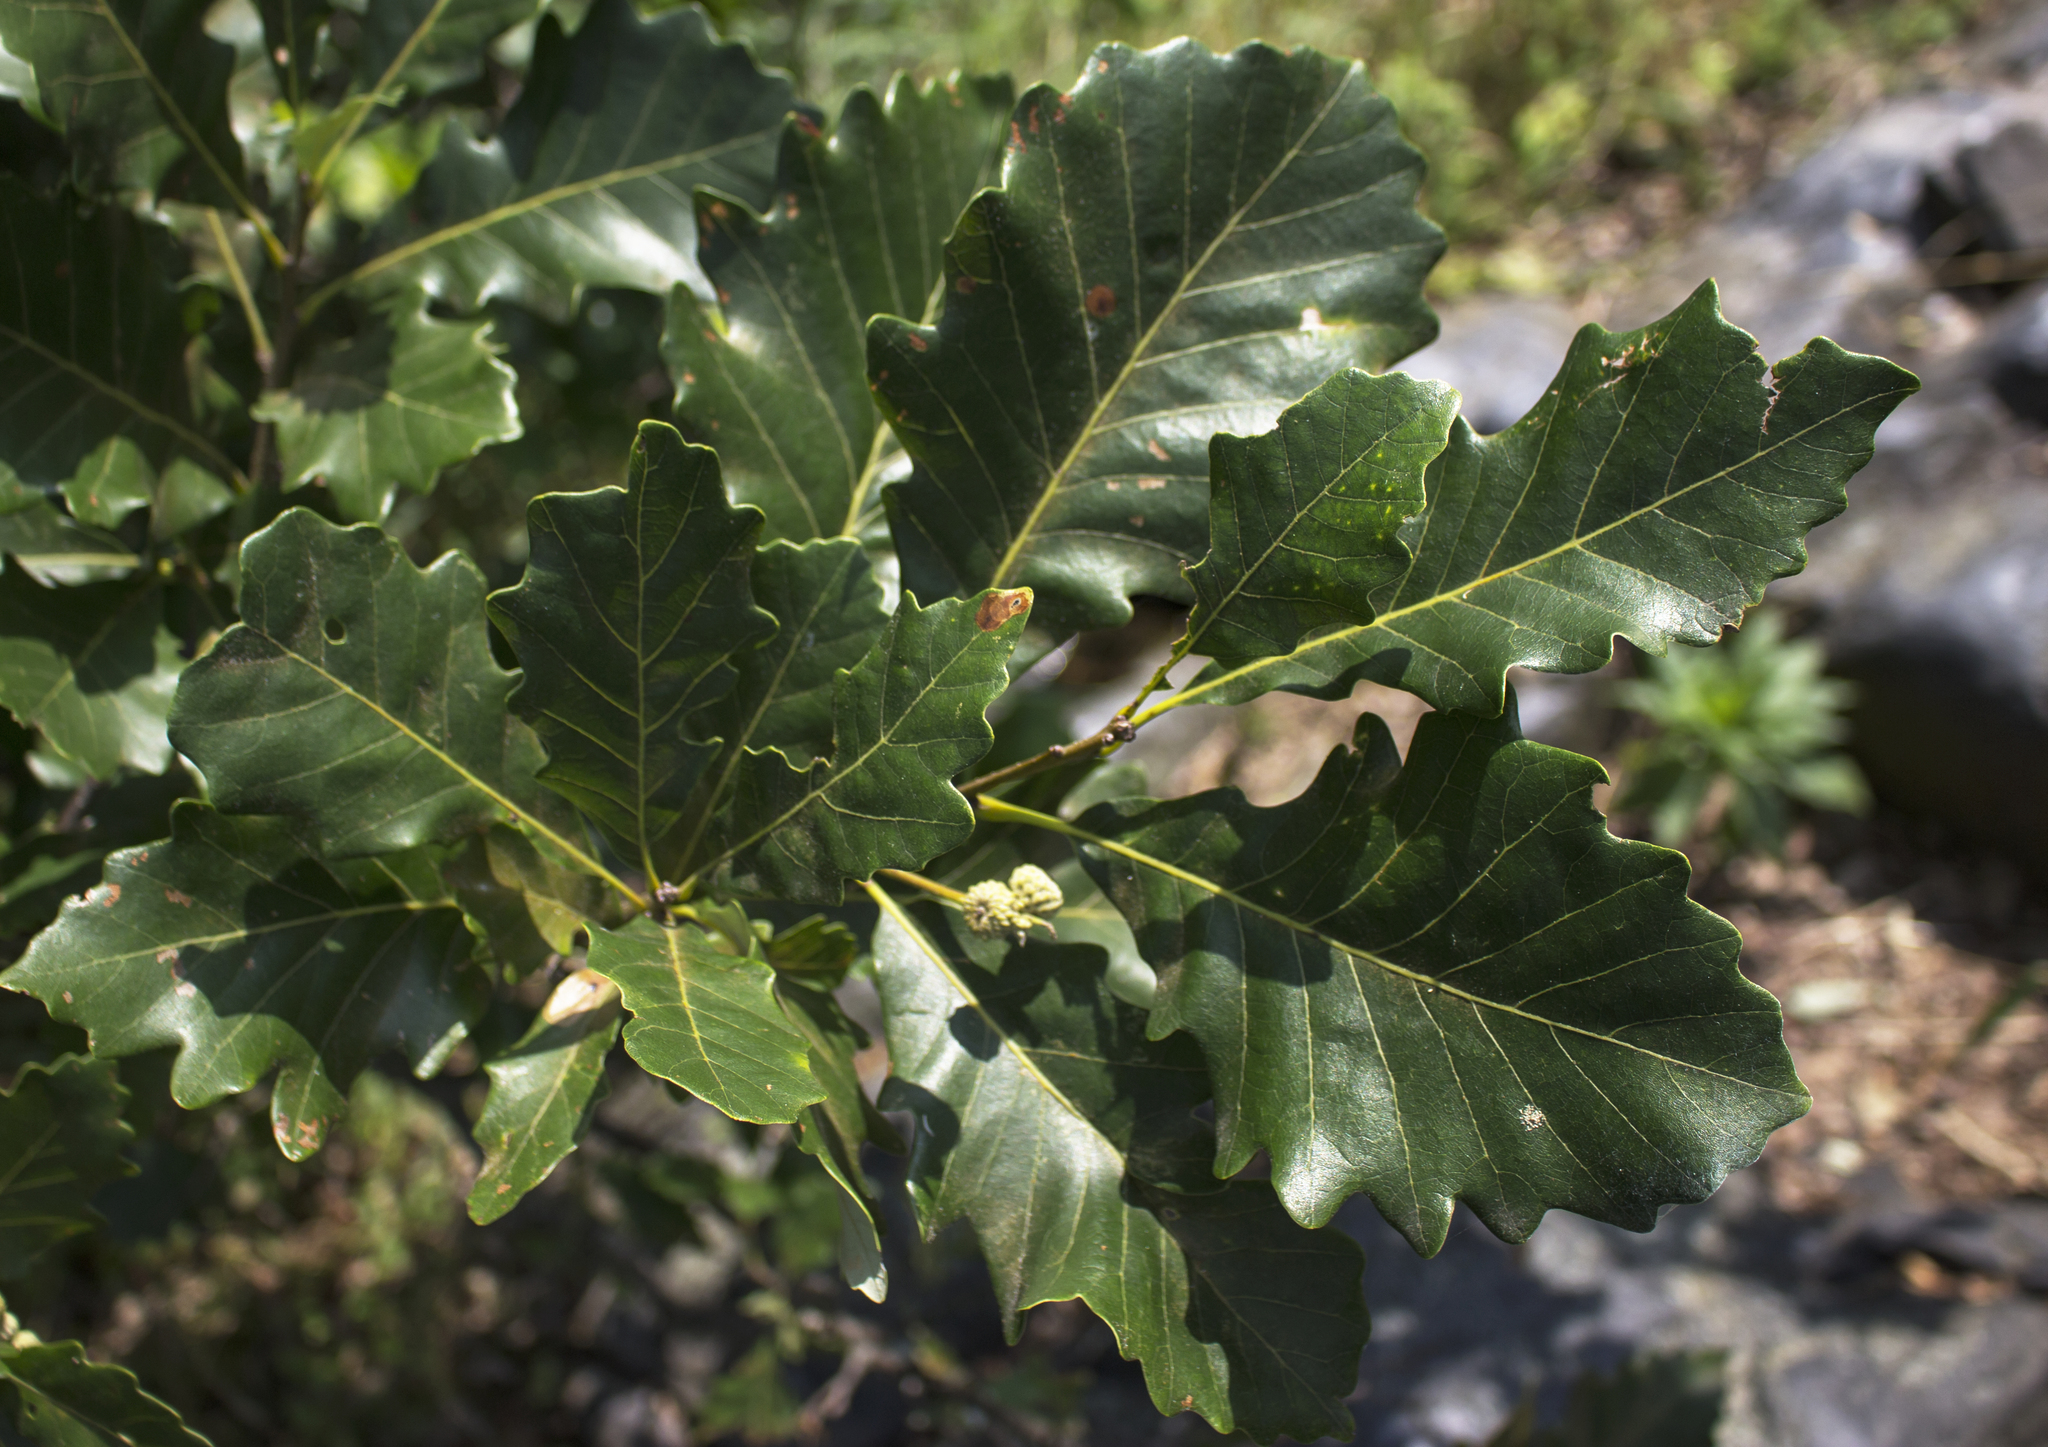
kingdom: Plantae
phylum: Tracheophyta
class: Magnoliopsida
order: Fagales
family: Fagaceae
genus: Quercus
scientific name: Quercus bicolor
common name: Swamp white oak
